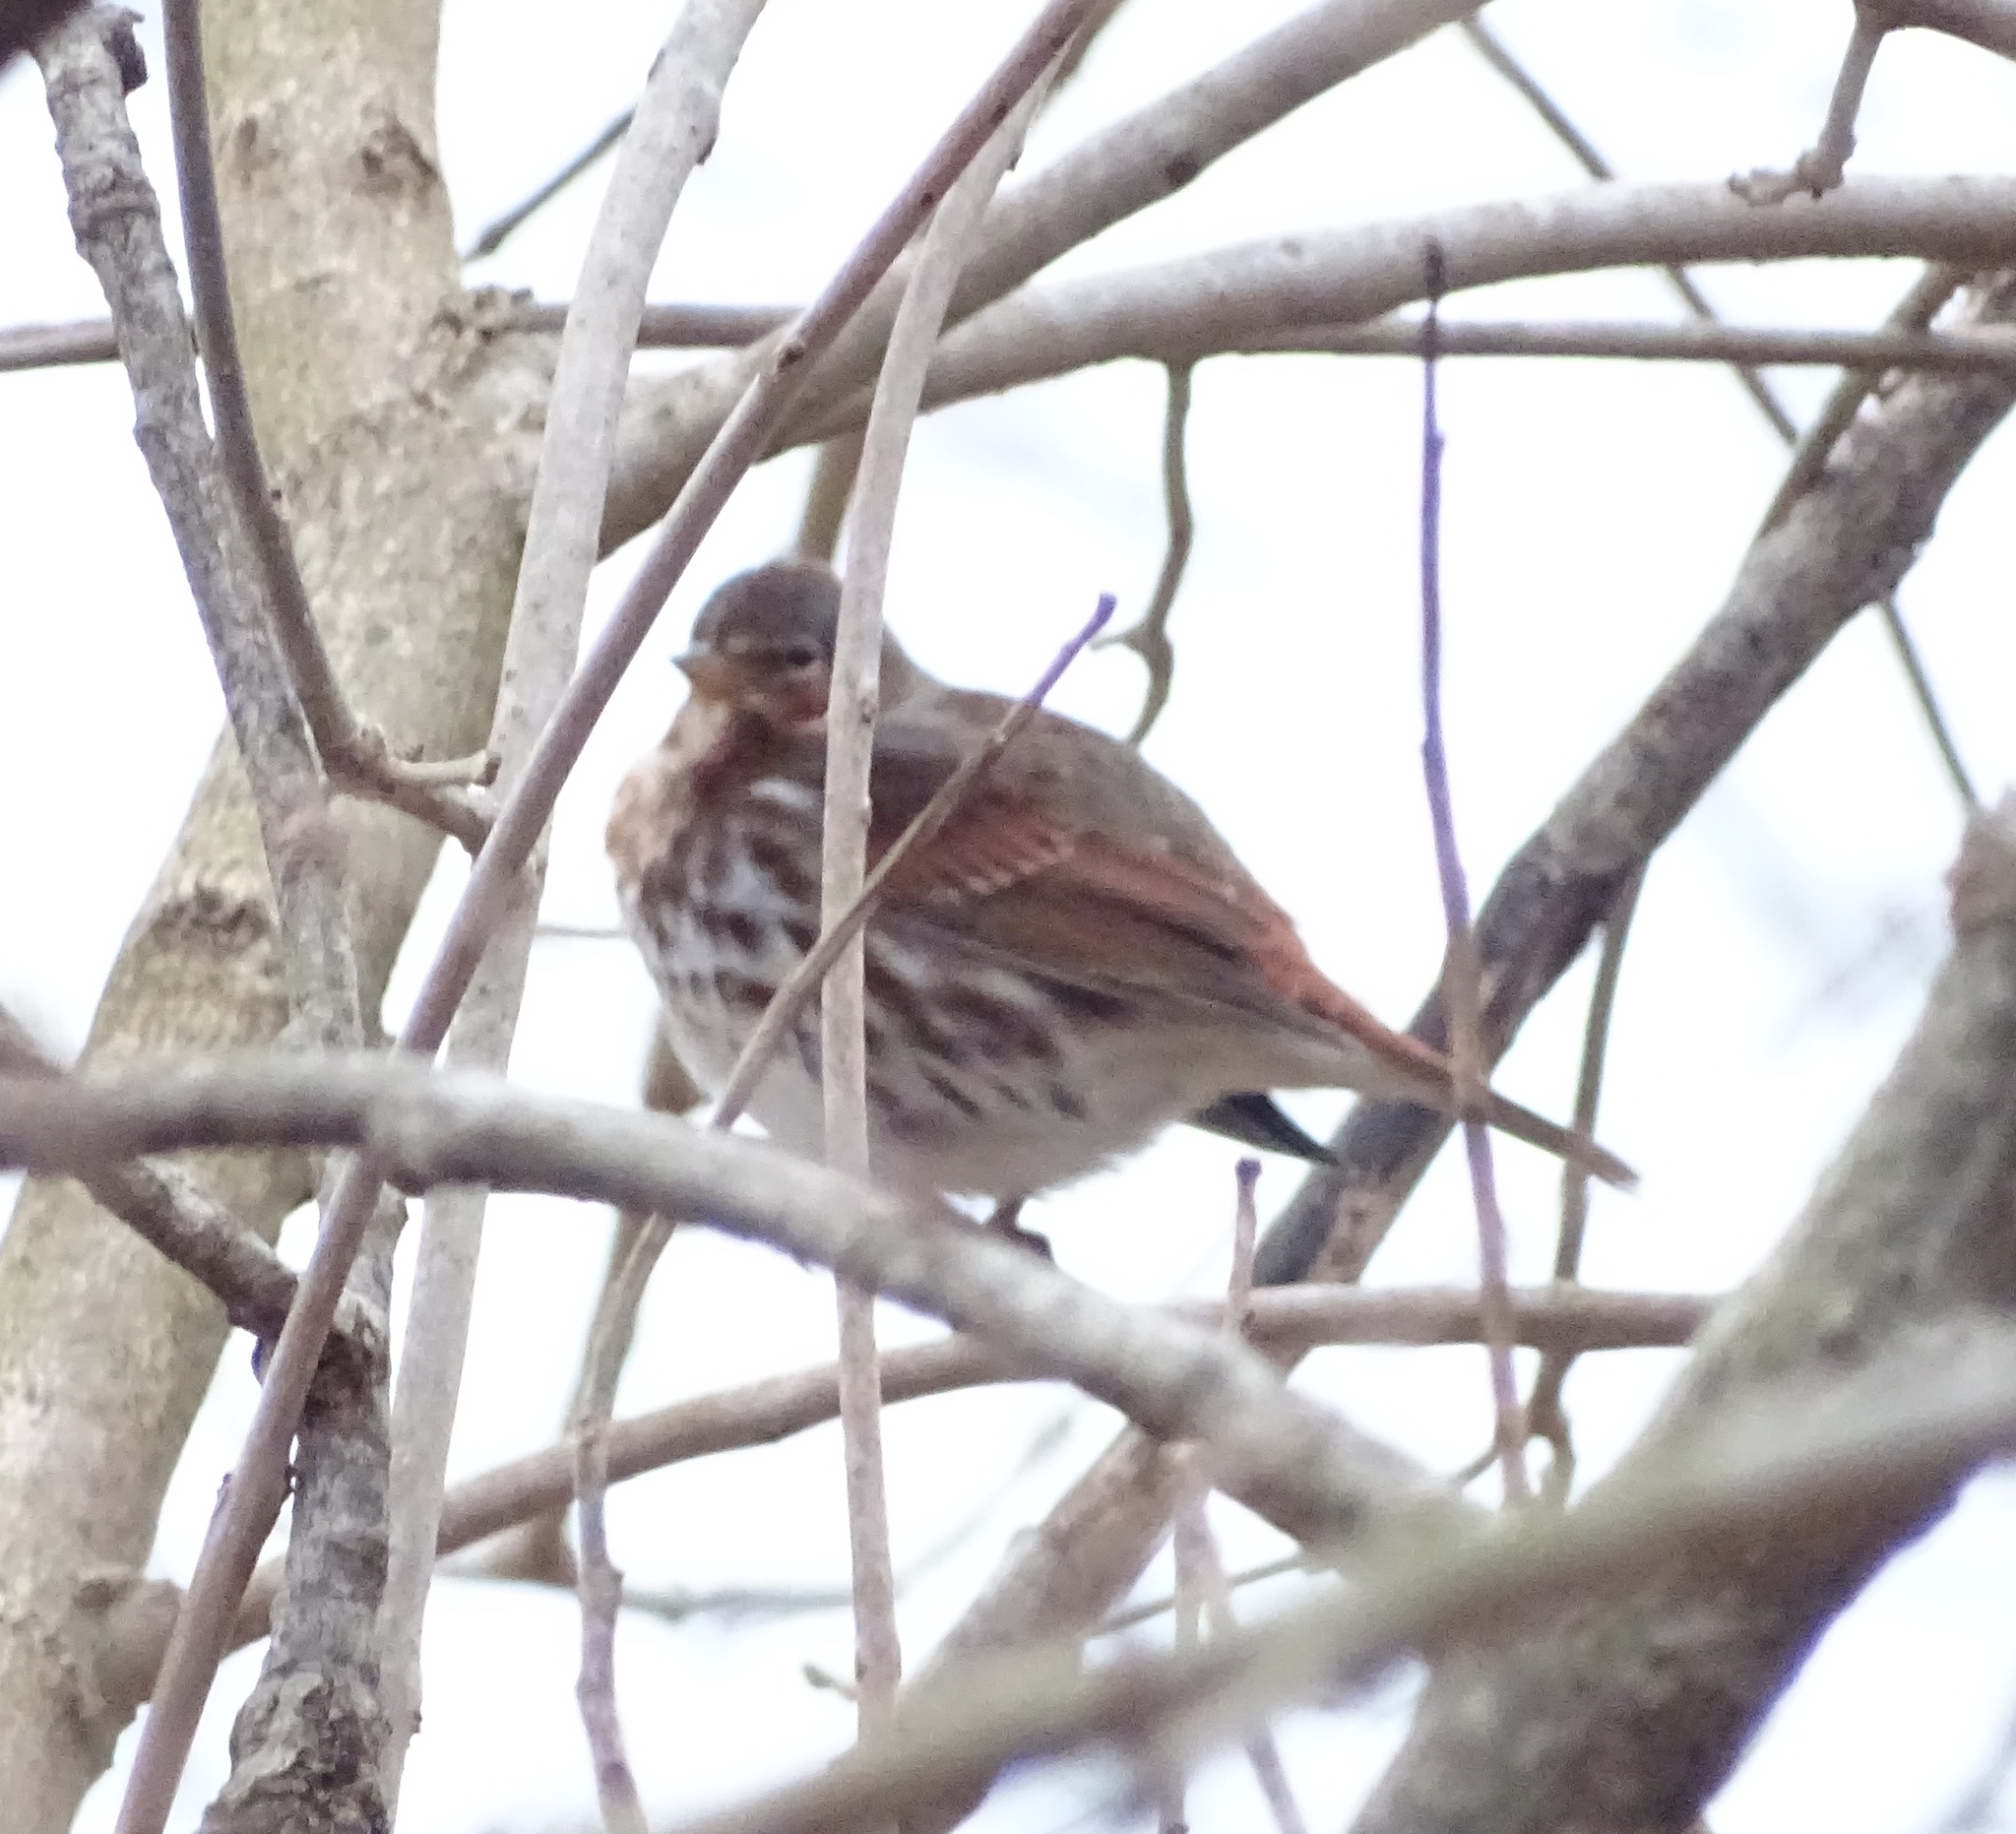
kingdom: Animalia
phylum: Chordata
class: Aves
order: Passeriformes
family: Passerellidae
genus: Passerella
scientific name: Passerella iliaca
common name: Fox sparrow
